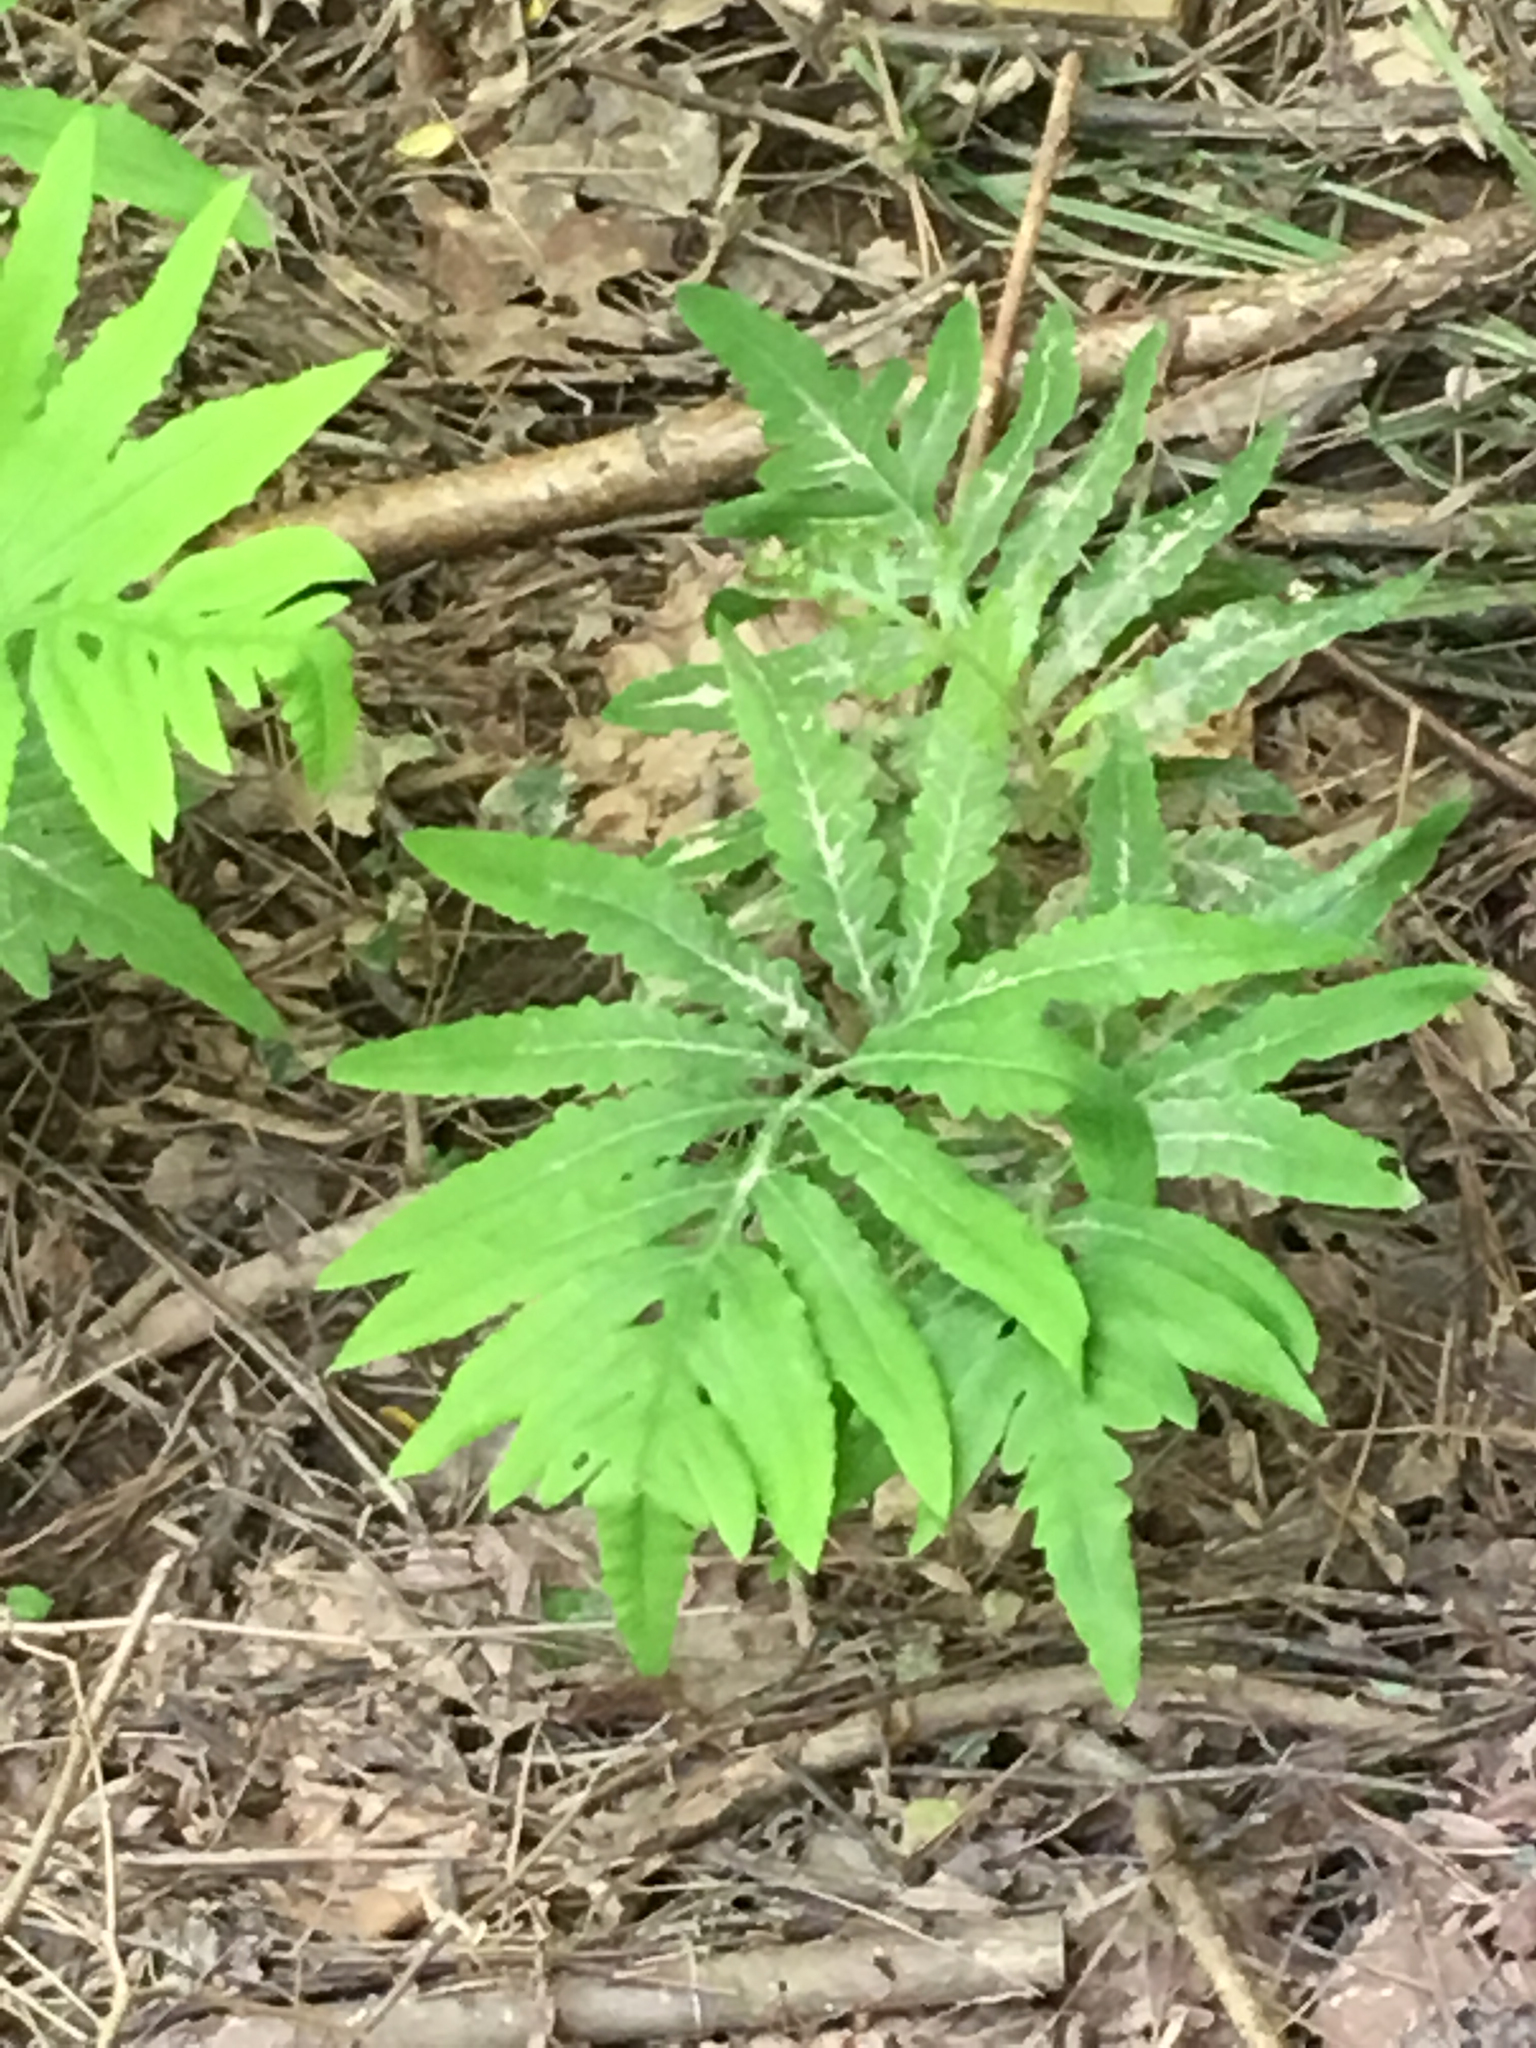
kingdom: Plantae
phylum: Tracheophyta
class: Polypodiopsida
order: Polypodiales
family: Onocleaceae
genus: Onoclea
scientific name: Onoclea sensibilis
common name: Sensitive fern
